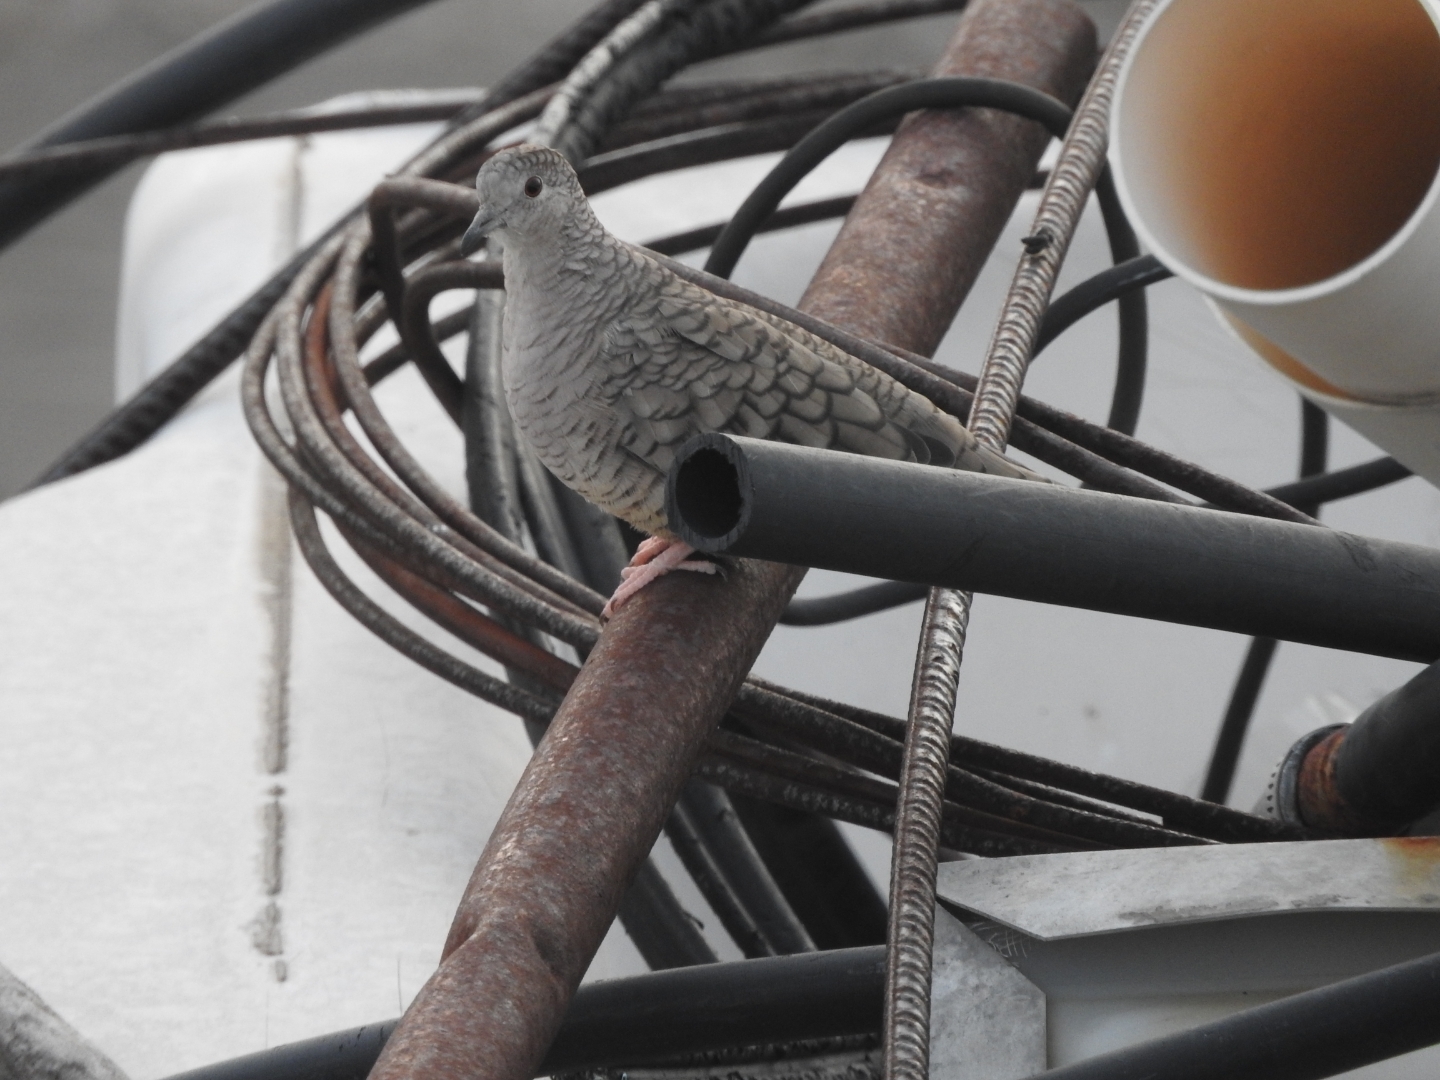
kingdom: Animalia
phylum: Chordata
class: Aves
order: Columbiformes
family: Columbidae
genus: Columbina
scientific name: Columbina inca
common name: Inca dove
